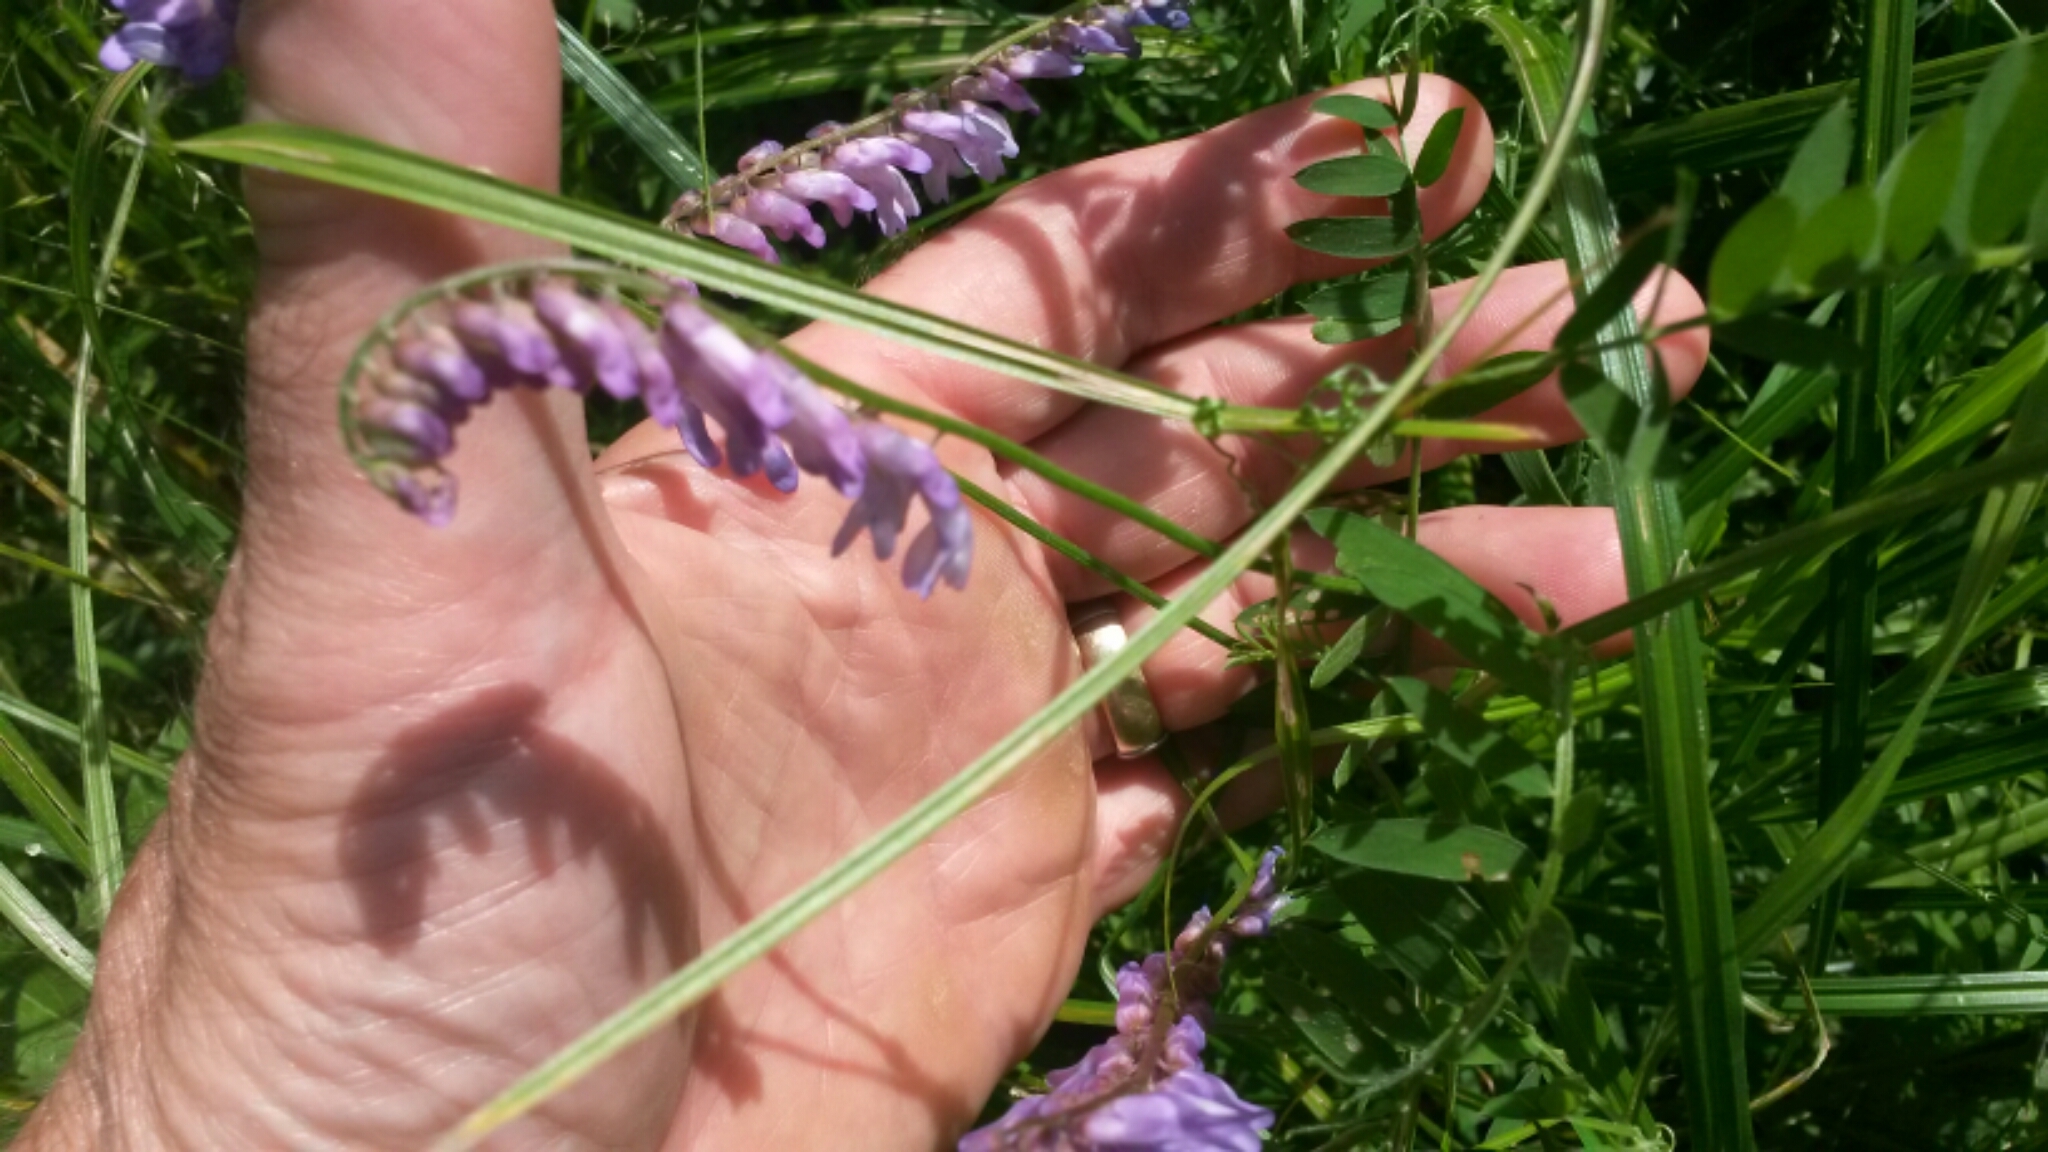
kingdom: Plantae
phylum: Tracheophyta
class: Magnoliopsida
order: Fabales
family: Fabaceae
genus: Vicia
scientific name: Vicia cracca
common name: Bird vetch
